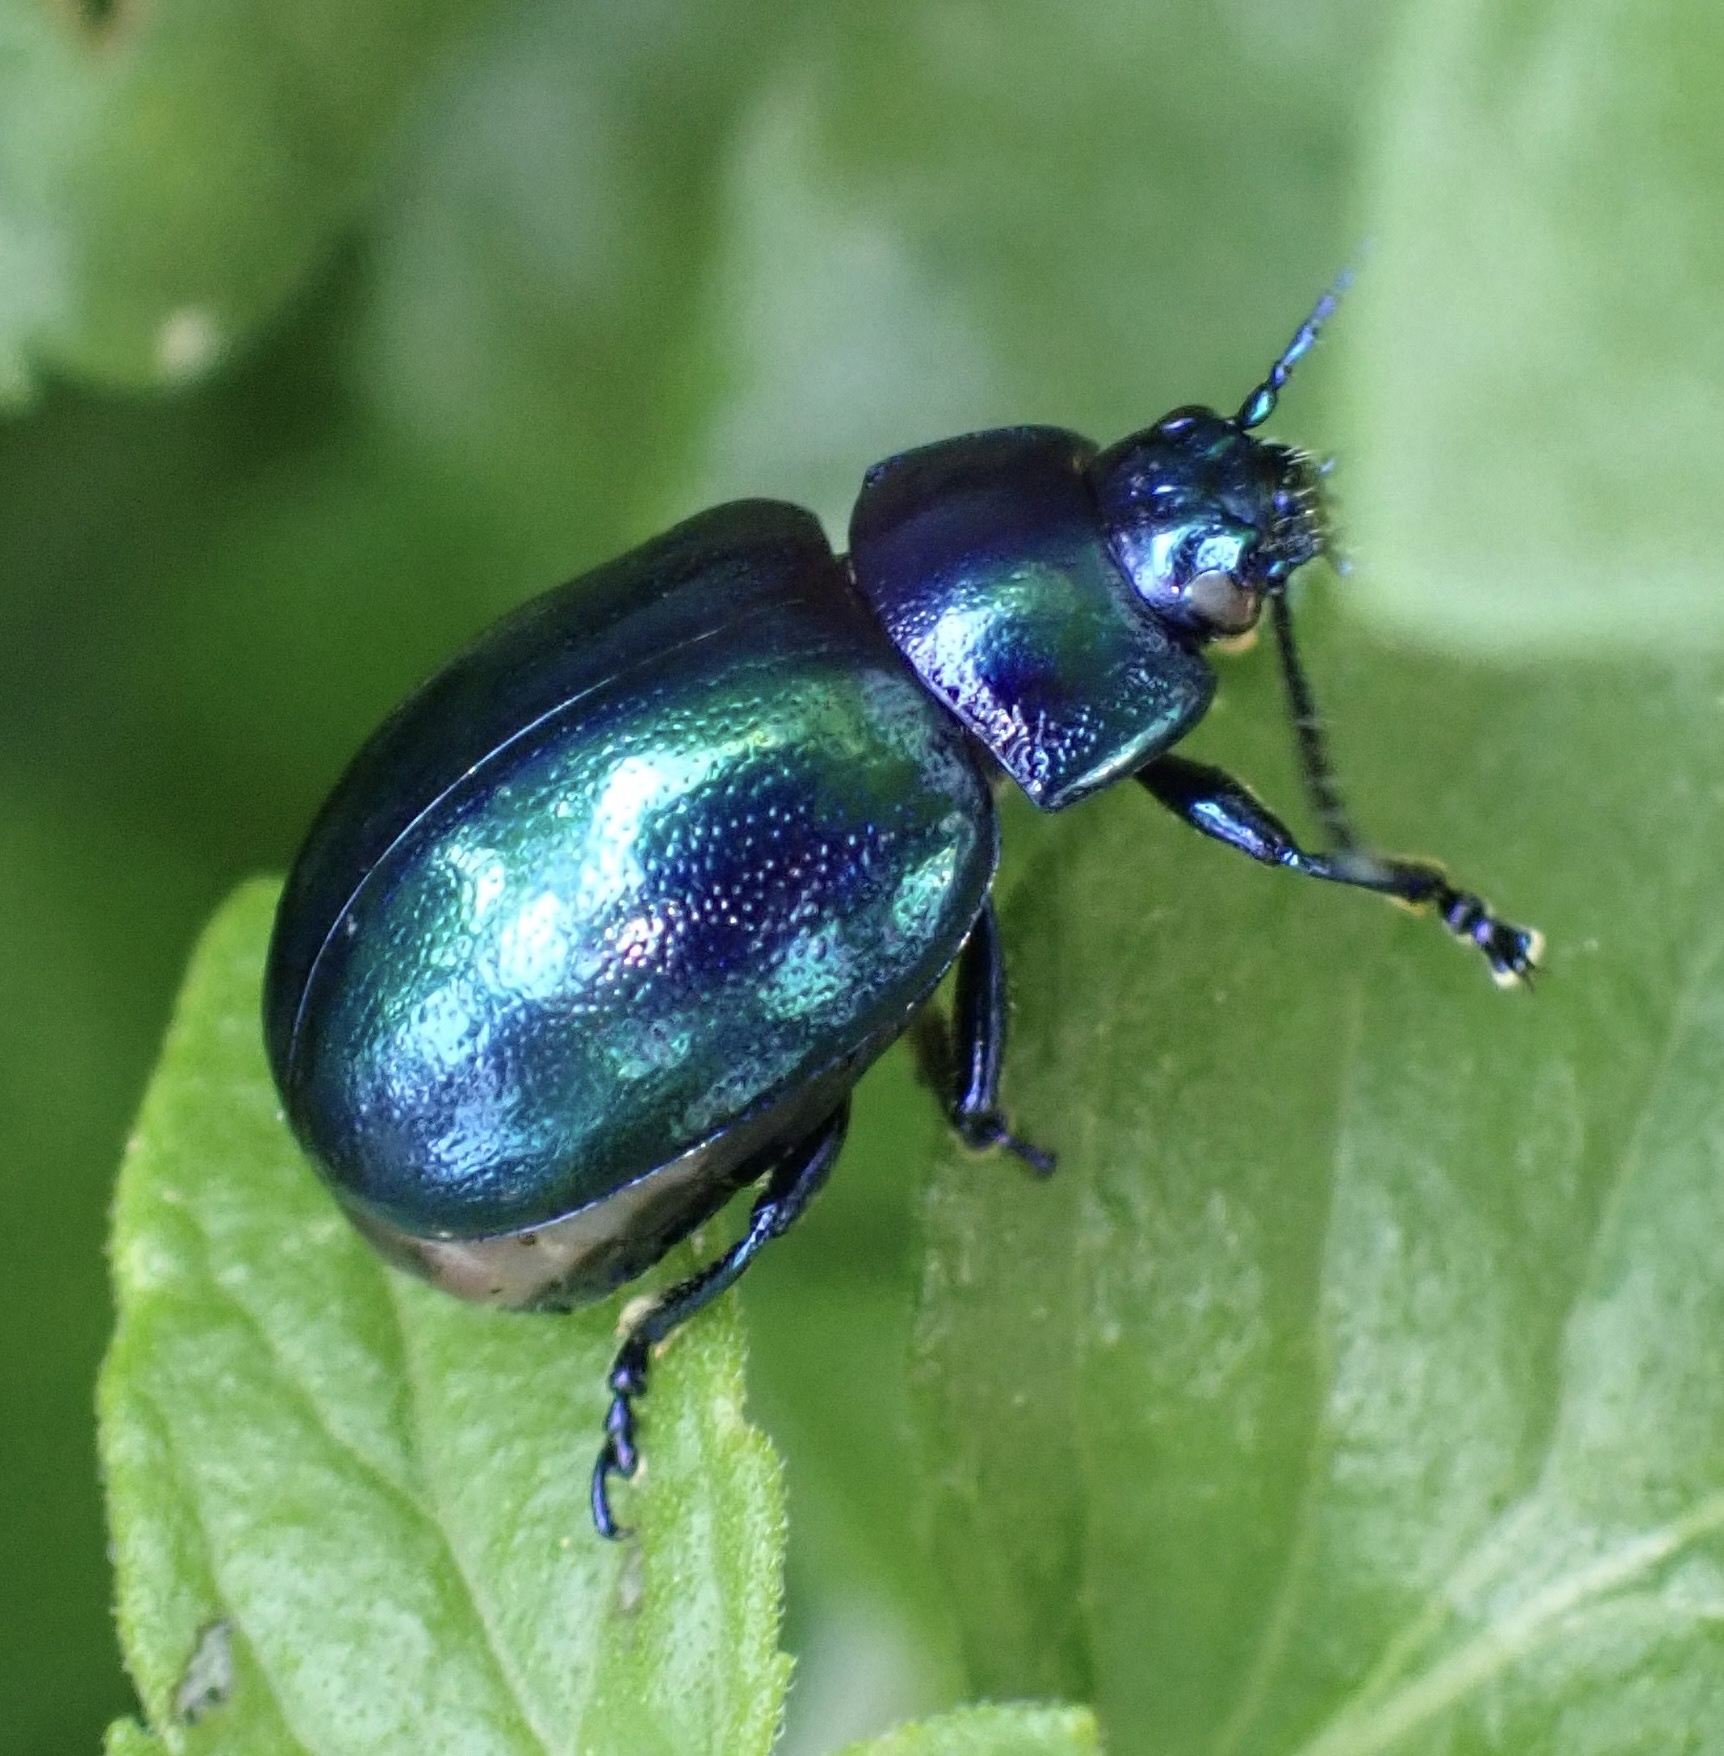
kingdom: Animalia
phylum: Arthropoda
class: Insecta
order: Coleoptera
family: Chrysomelidae
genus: Chrysolina
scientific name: Chrysolina coerulans
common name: Blue mint beetle
